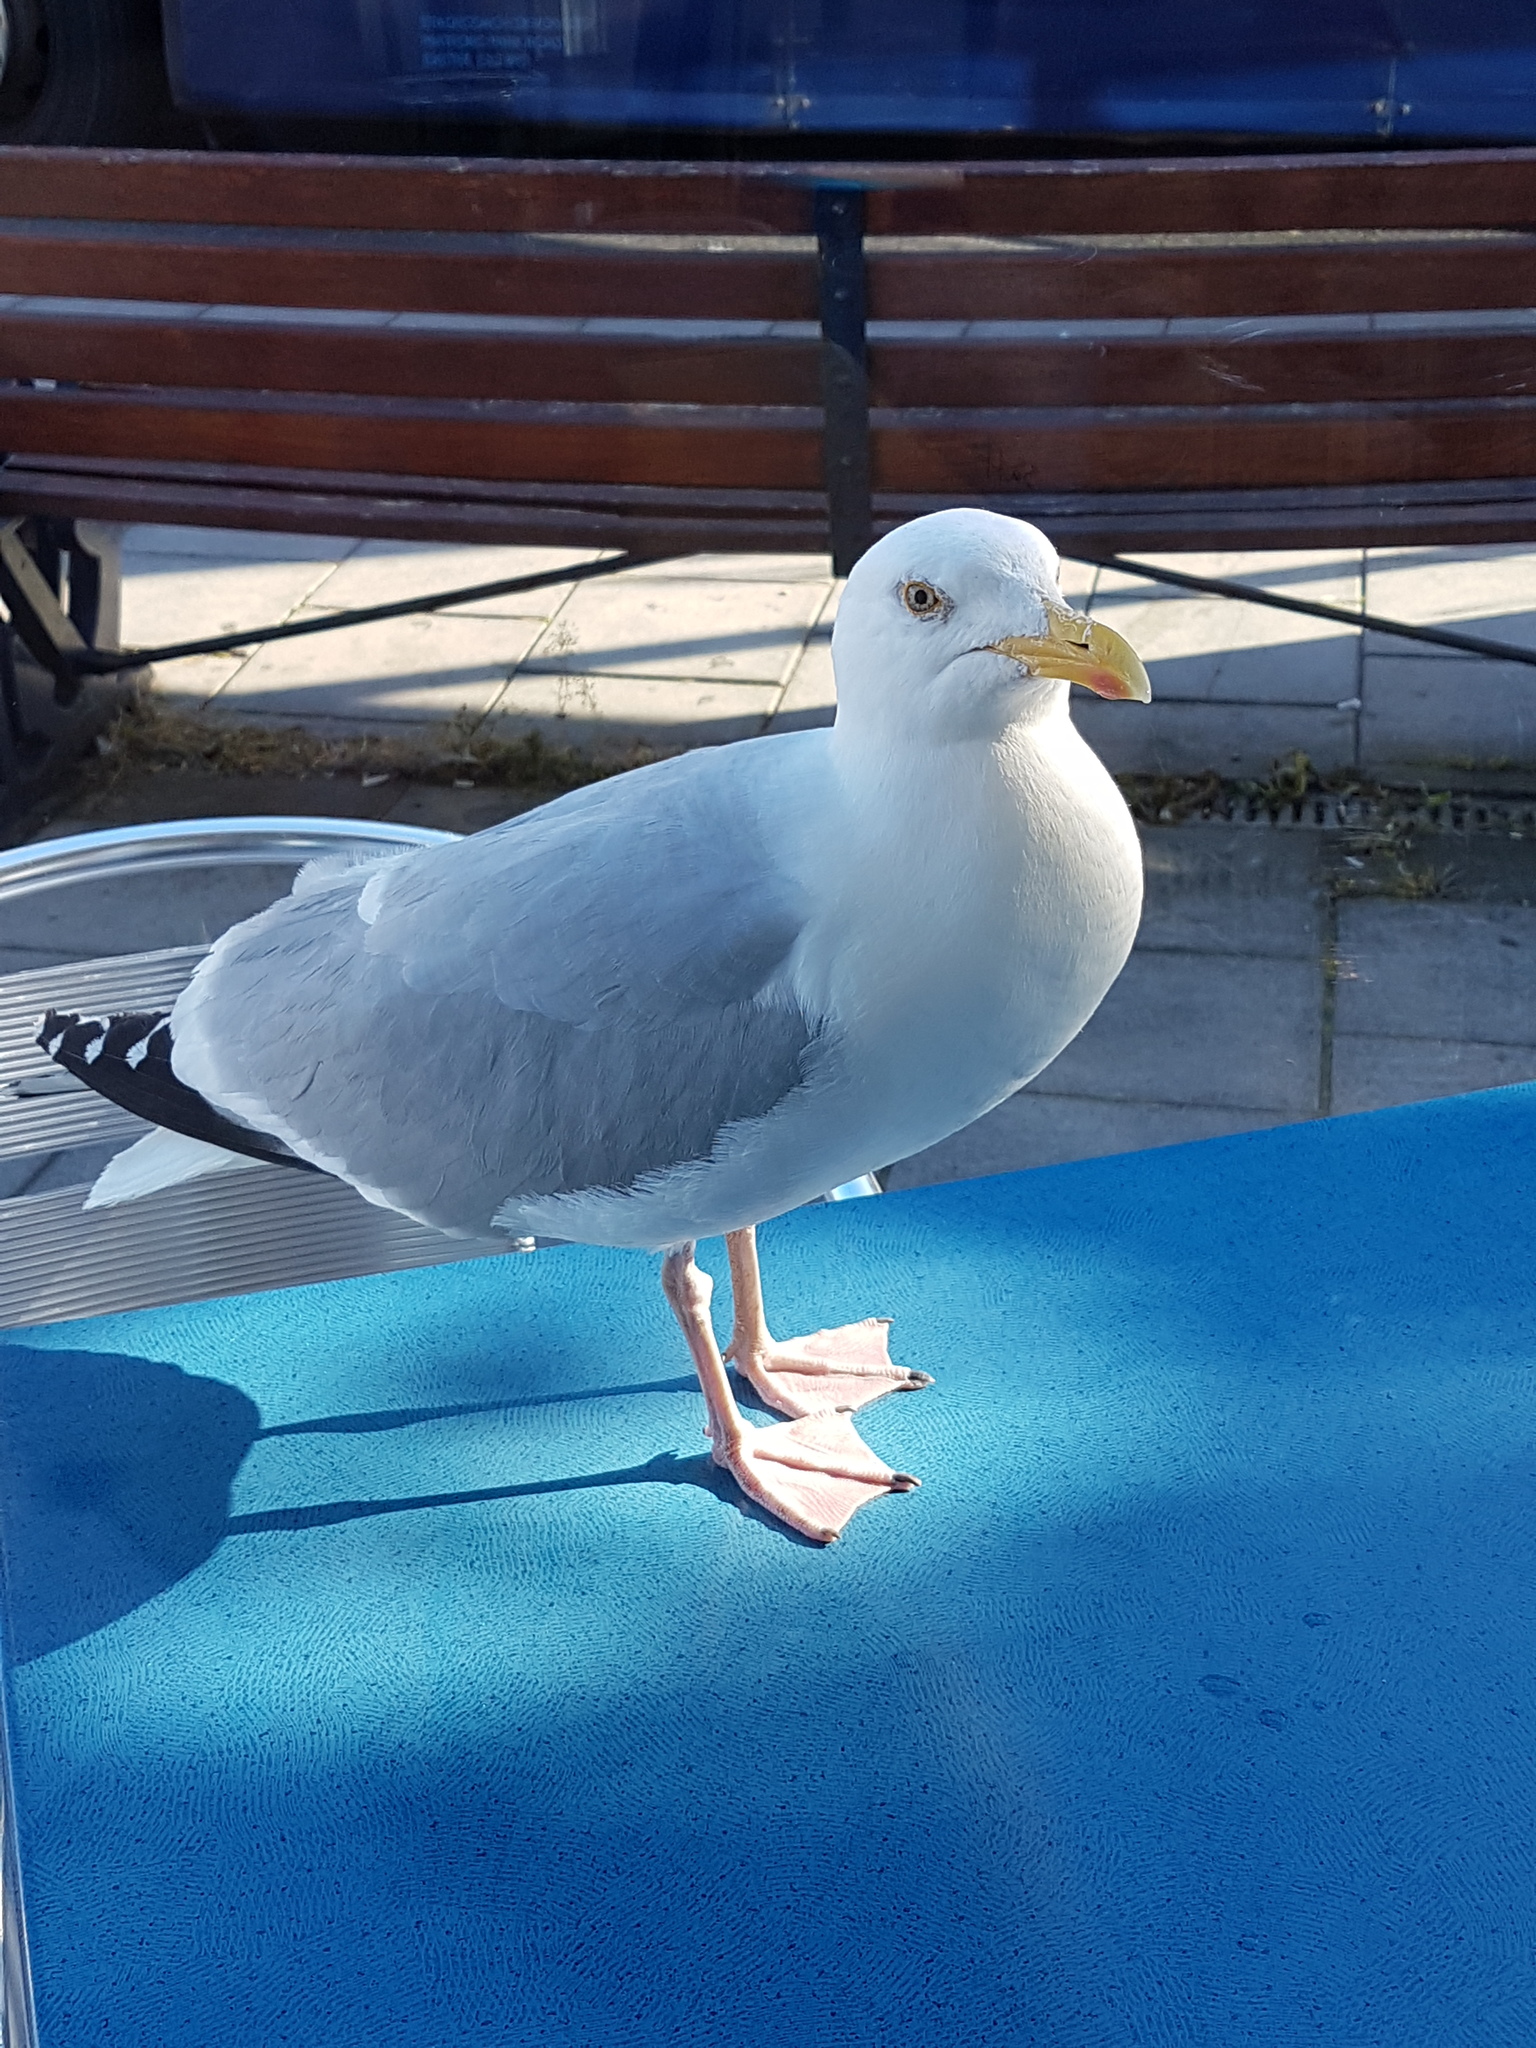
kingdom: Animalia
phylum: Chordata
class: Aves
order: Charadriiformes
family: Laridae
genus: Larus
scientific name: Larus argentatus
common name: Herring gull
